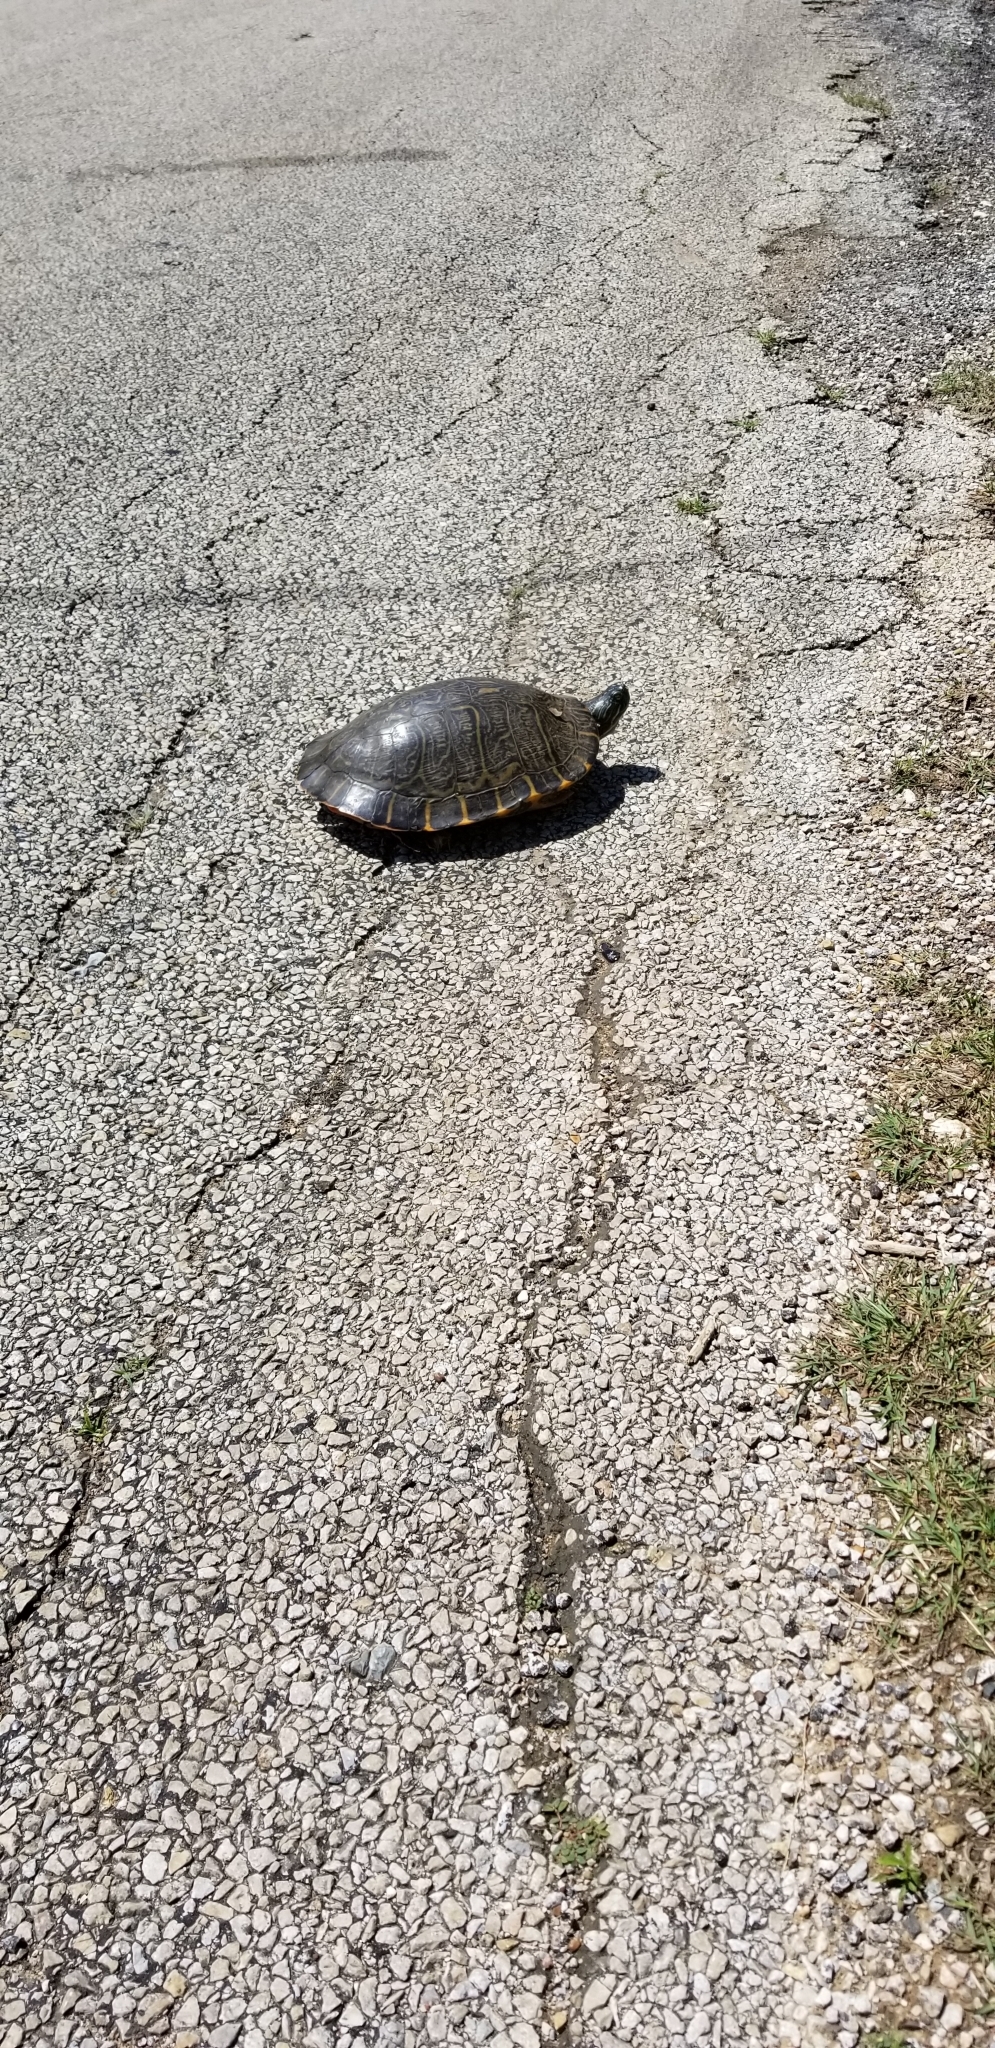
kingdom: Animalia
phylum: Chordata
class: Testudines
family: Emydidae
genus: Pseudemys
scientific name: Pseudemys concinna
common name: Eastern river cooter
